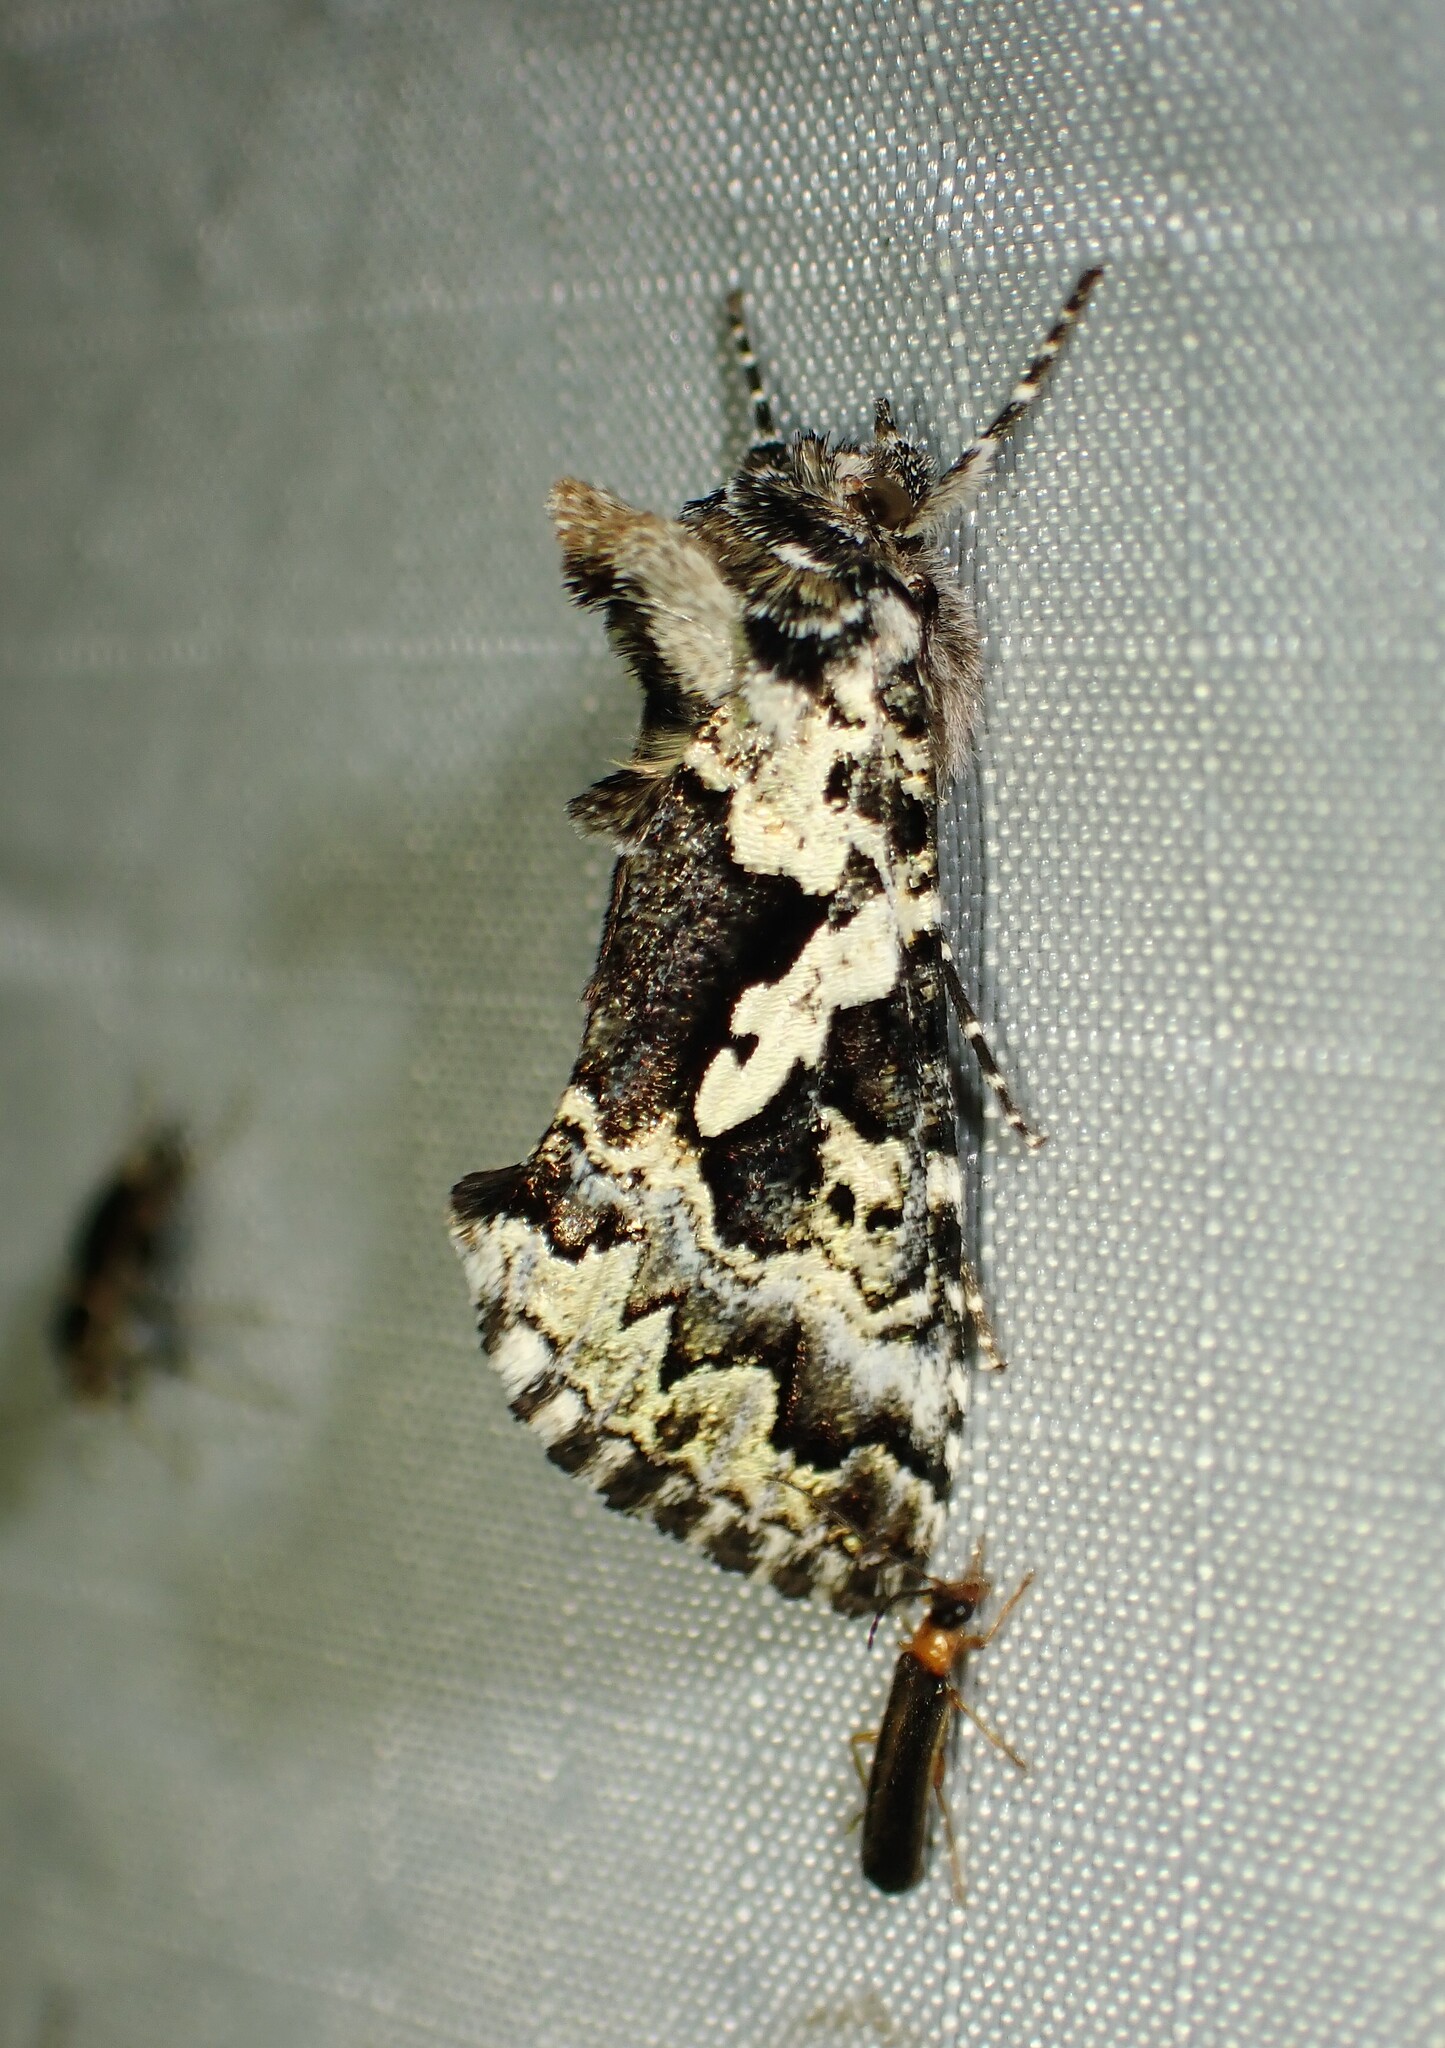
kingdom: Animalia
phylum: Arthropoda
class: Insecta
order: Lepidoptera
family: Noctuidae
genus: Syngrapha
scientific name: Syngrapha rectangula
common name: Angulated cutworm
